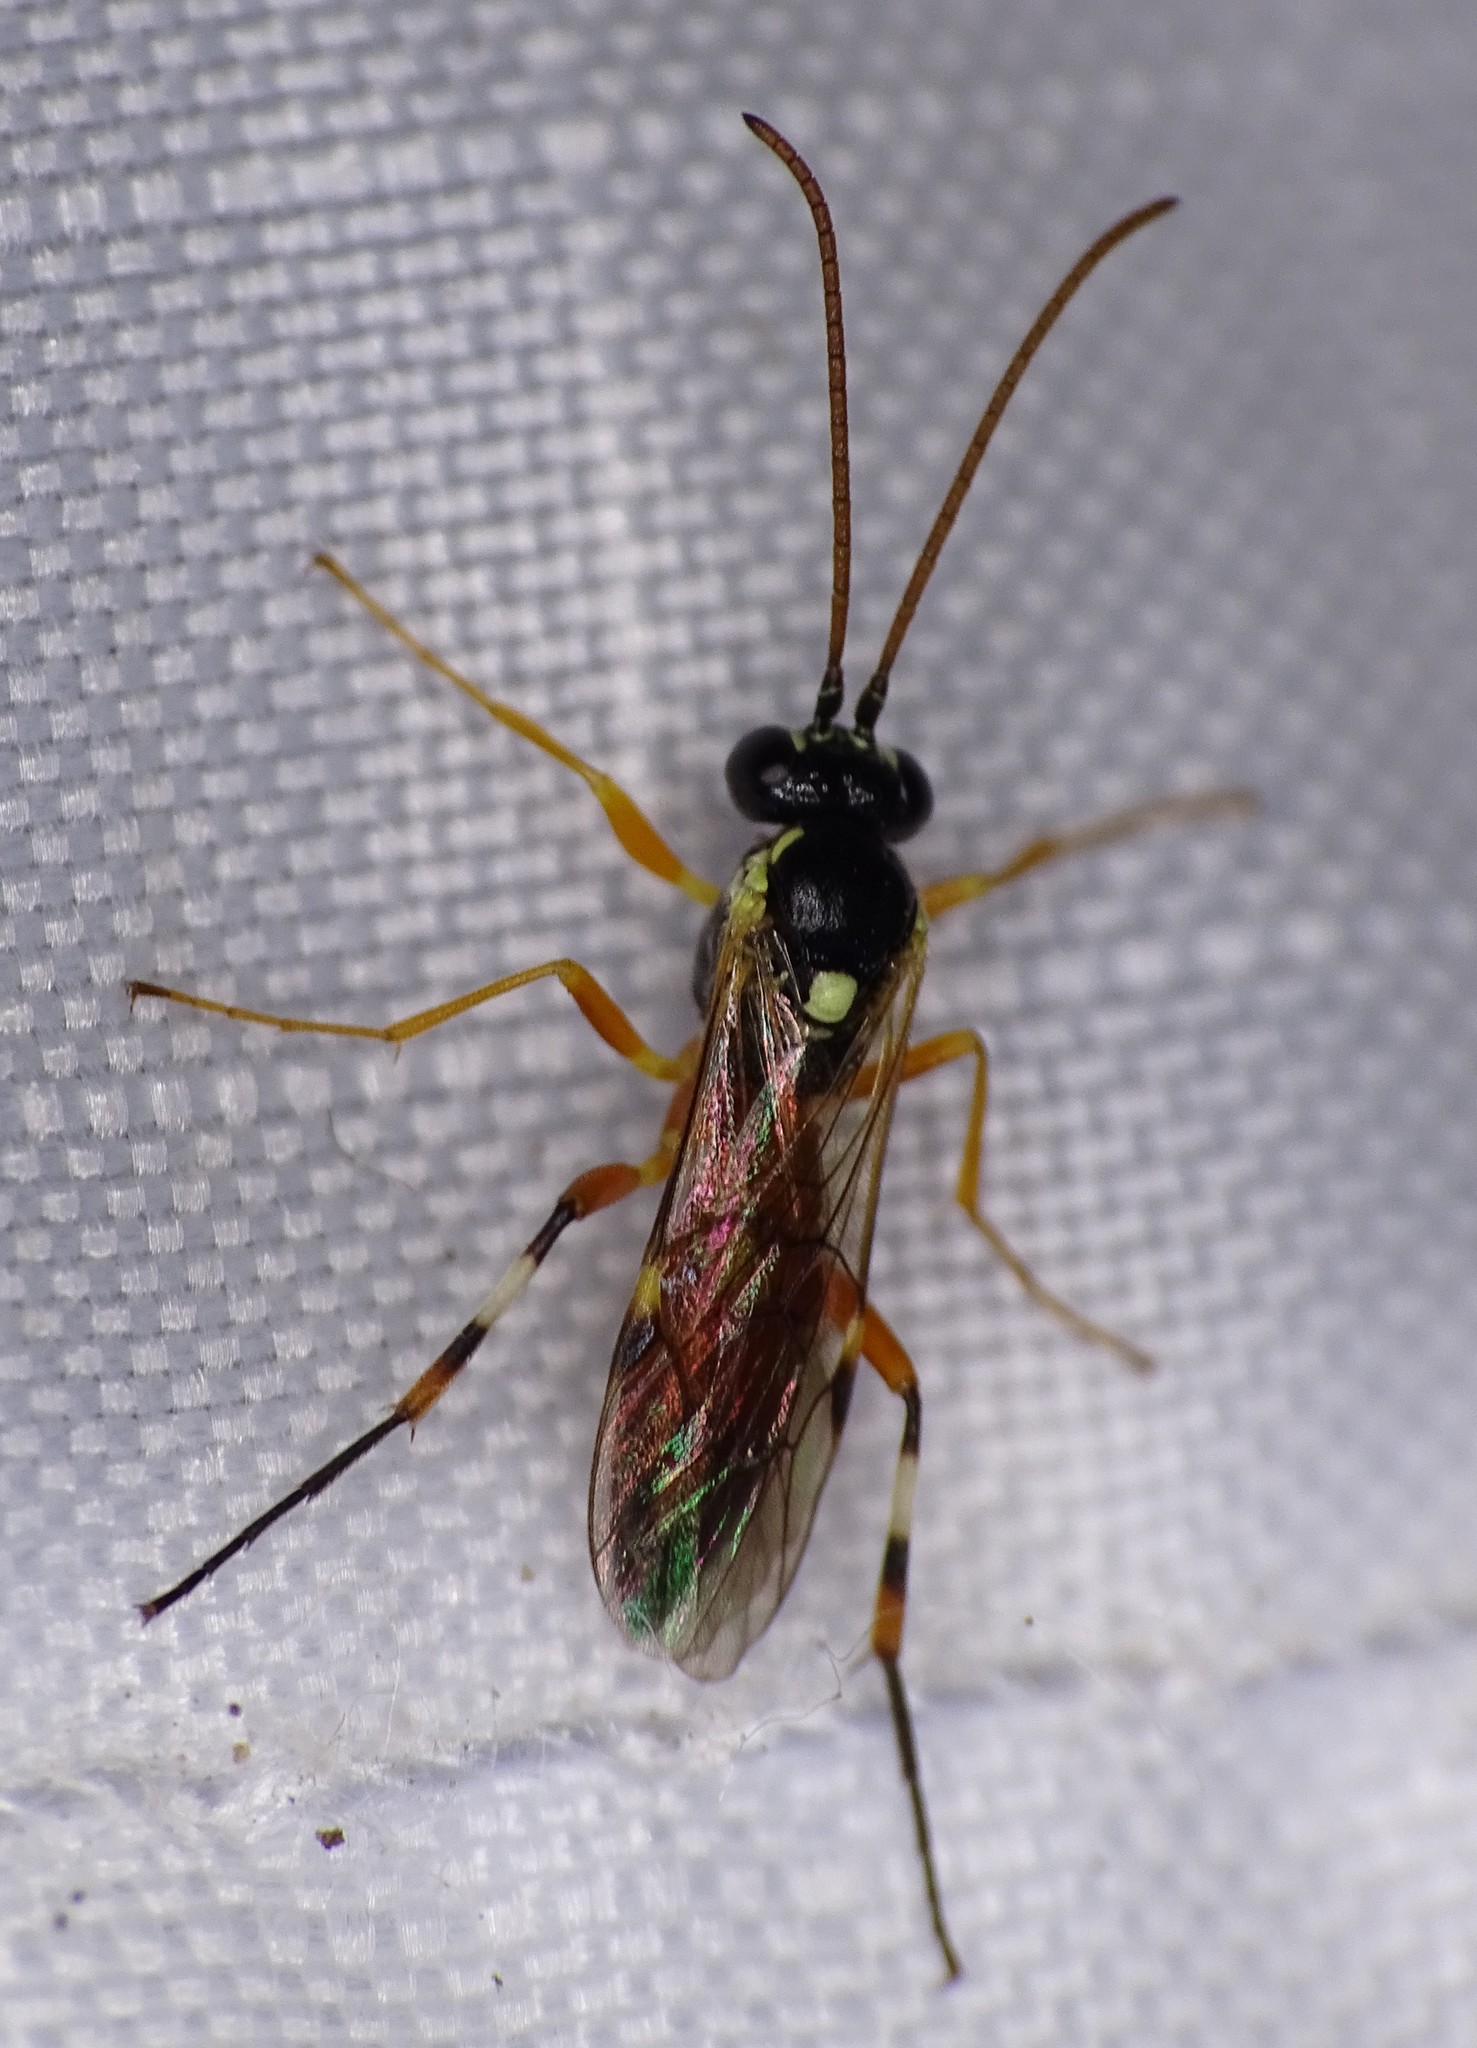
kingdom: Animalia
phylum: Arthropoda
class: Insecta
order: Hymenoptera
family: Ichneumonidae
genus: Diplazon
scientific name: Diplazon laetatorius
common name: Parasitoid wasp
